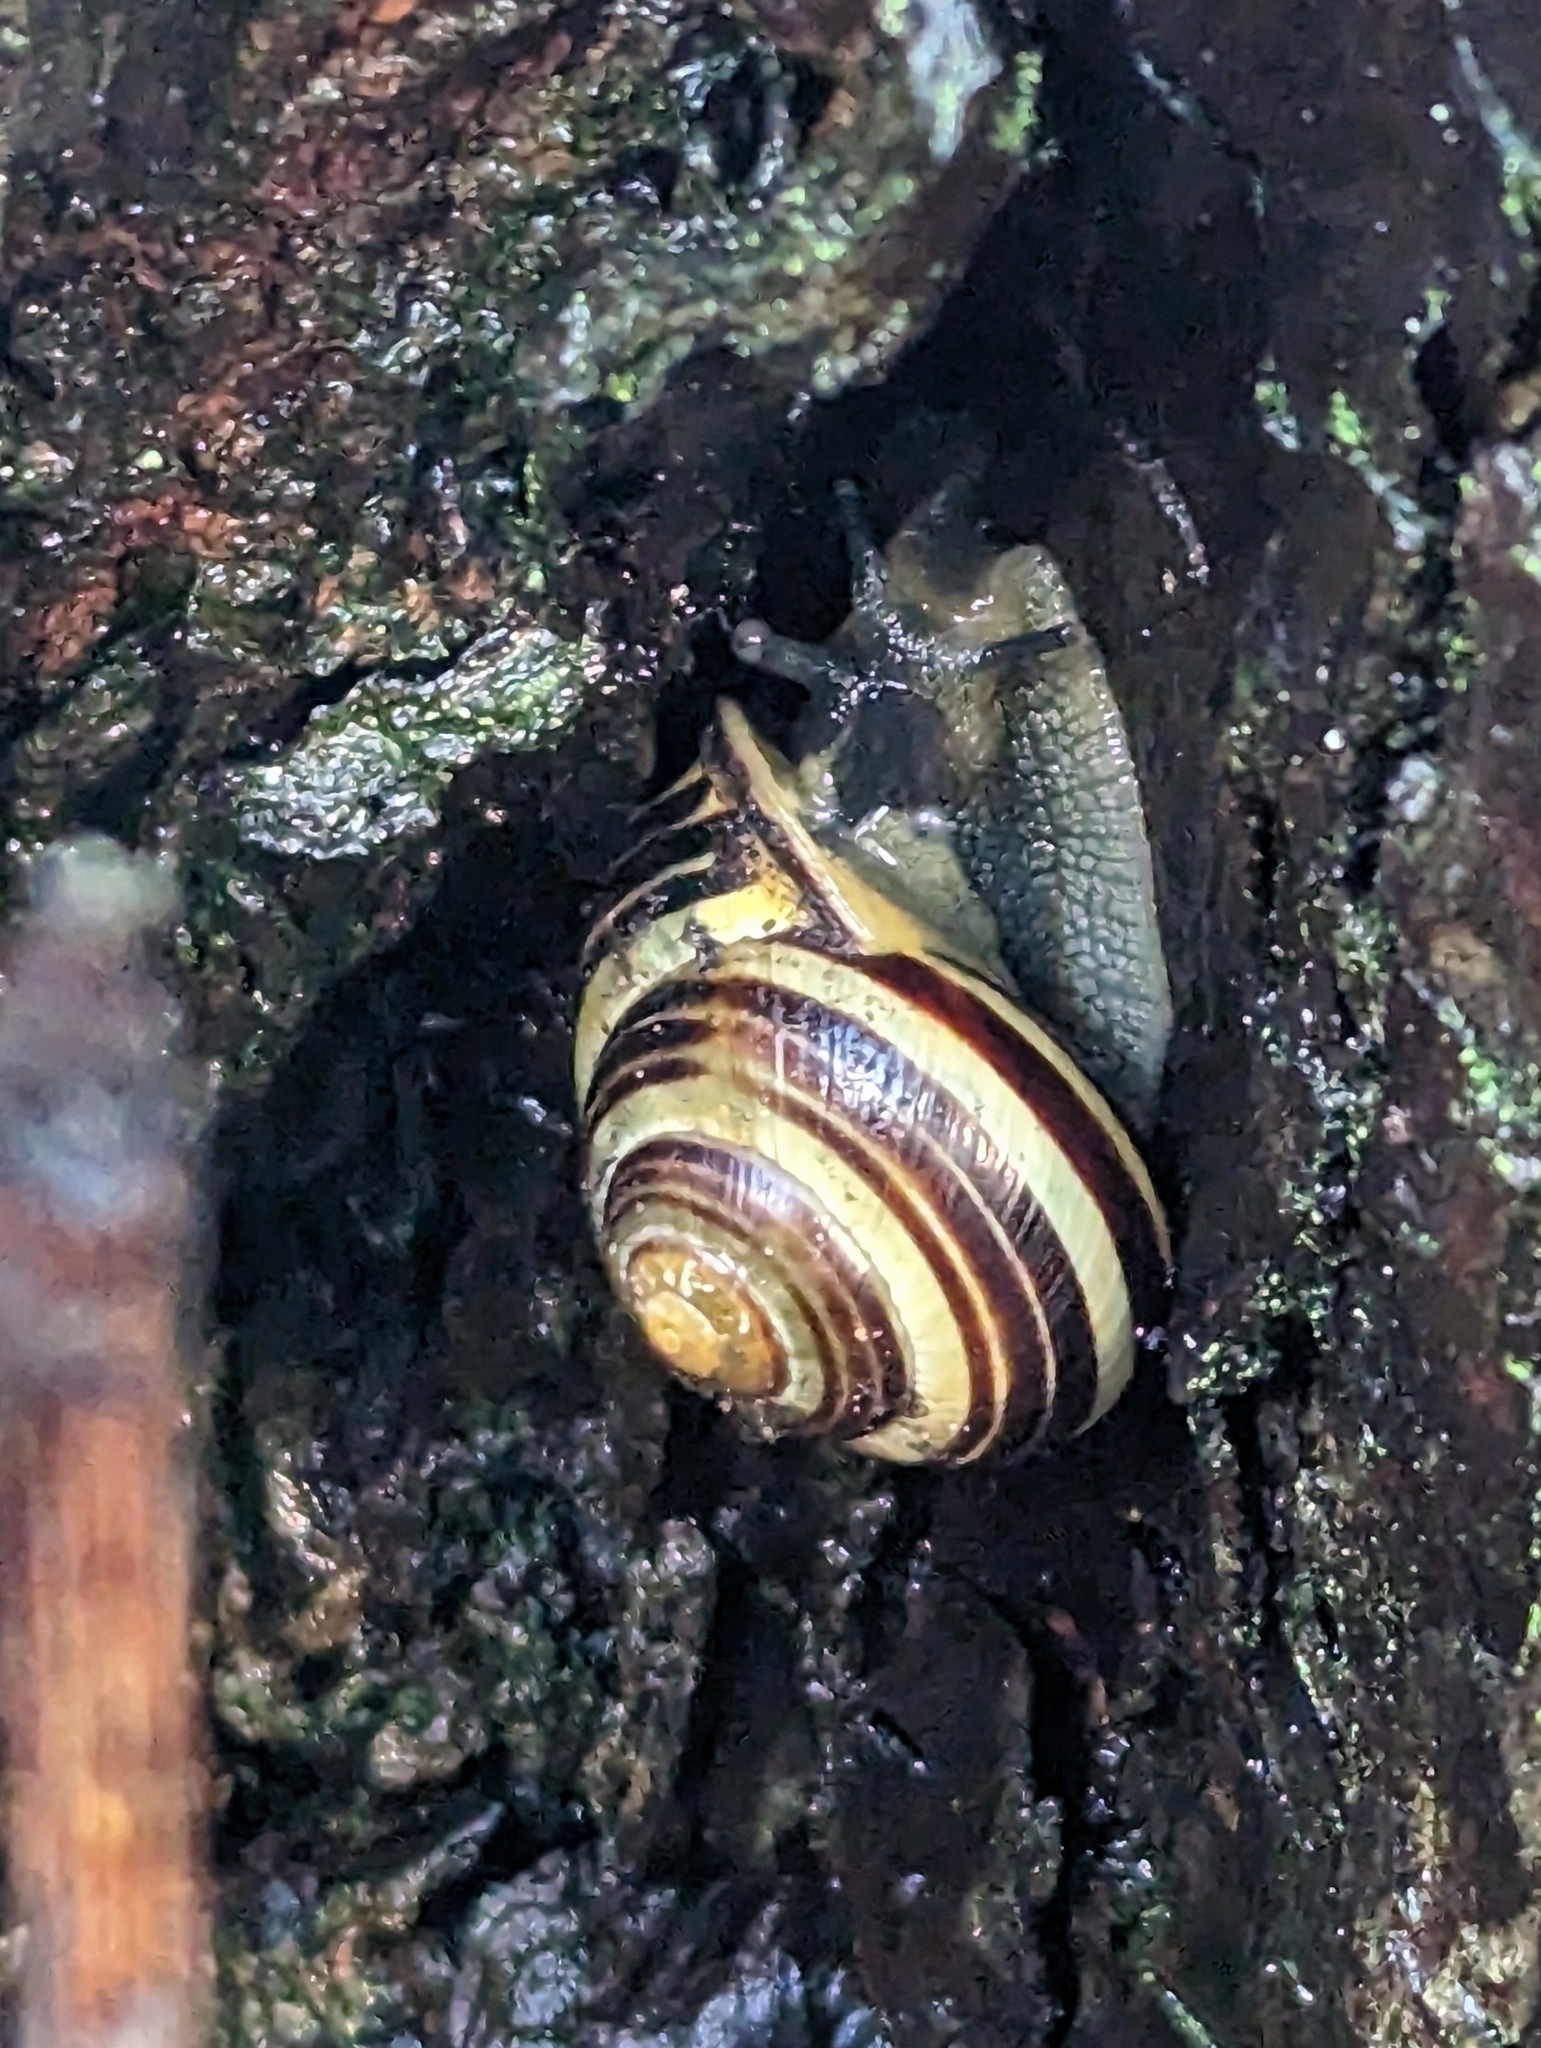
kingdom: Animalia
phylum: Mollusca
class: Gastropoda
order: Stylommatophora
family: Helicidae
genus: Cepaea
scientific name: Cepaea nemoralis
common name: Grovesnail
